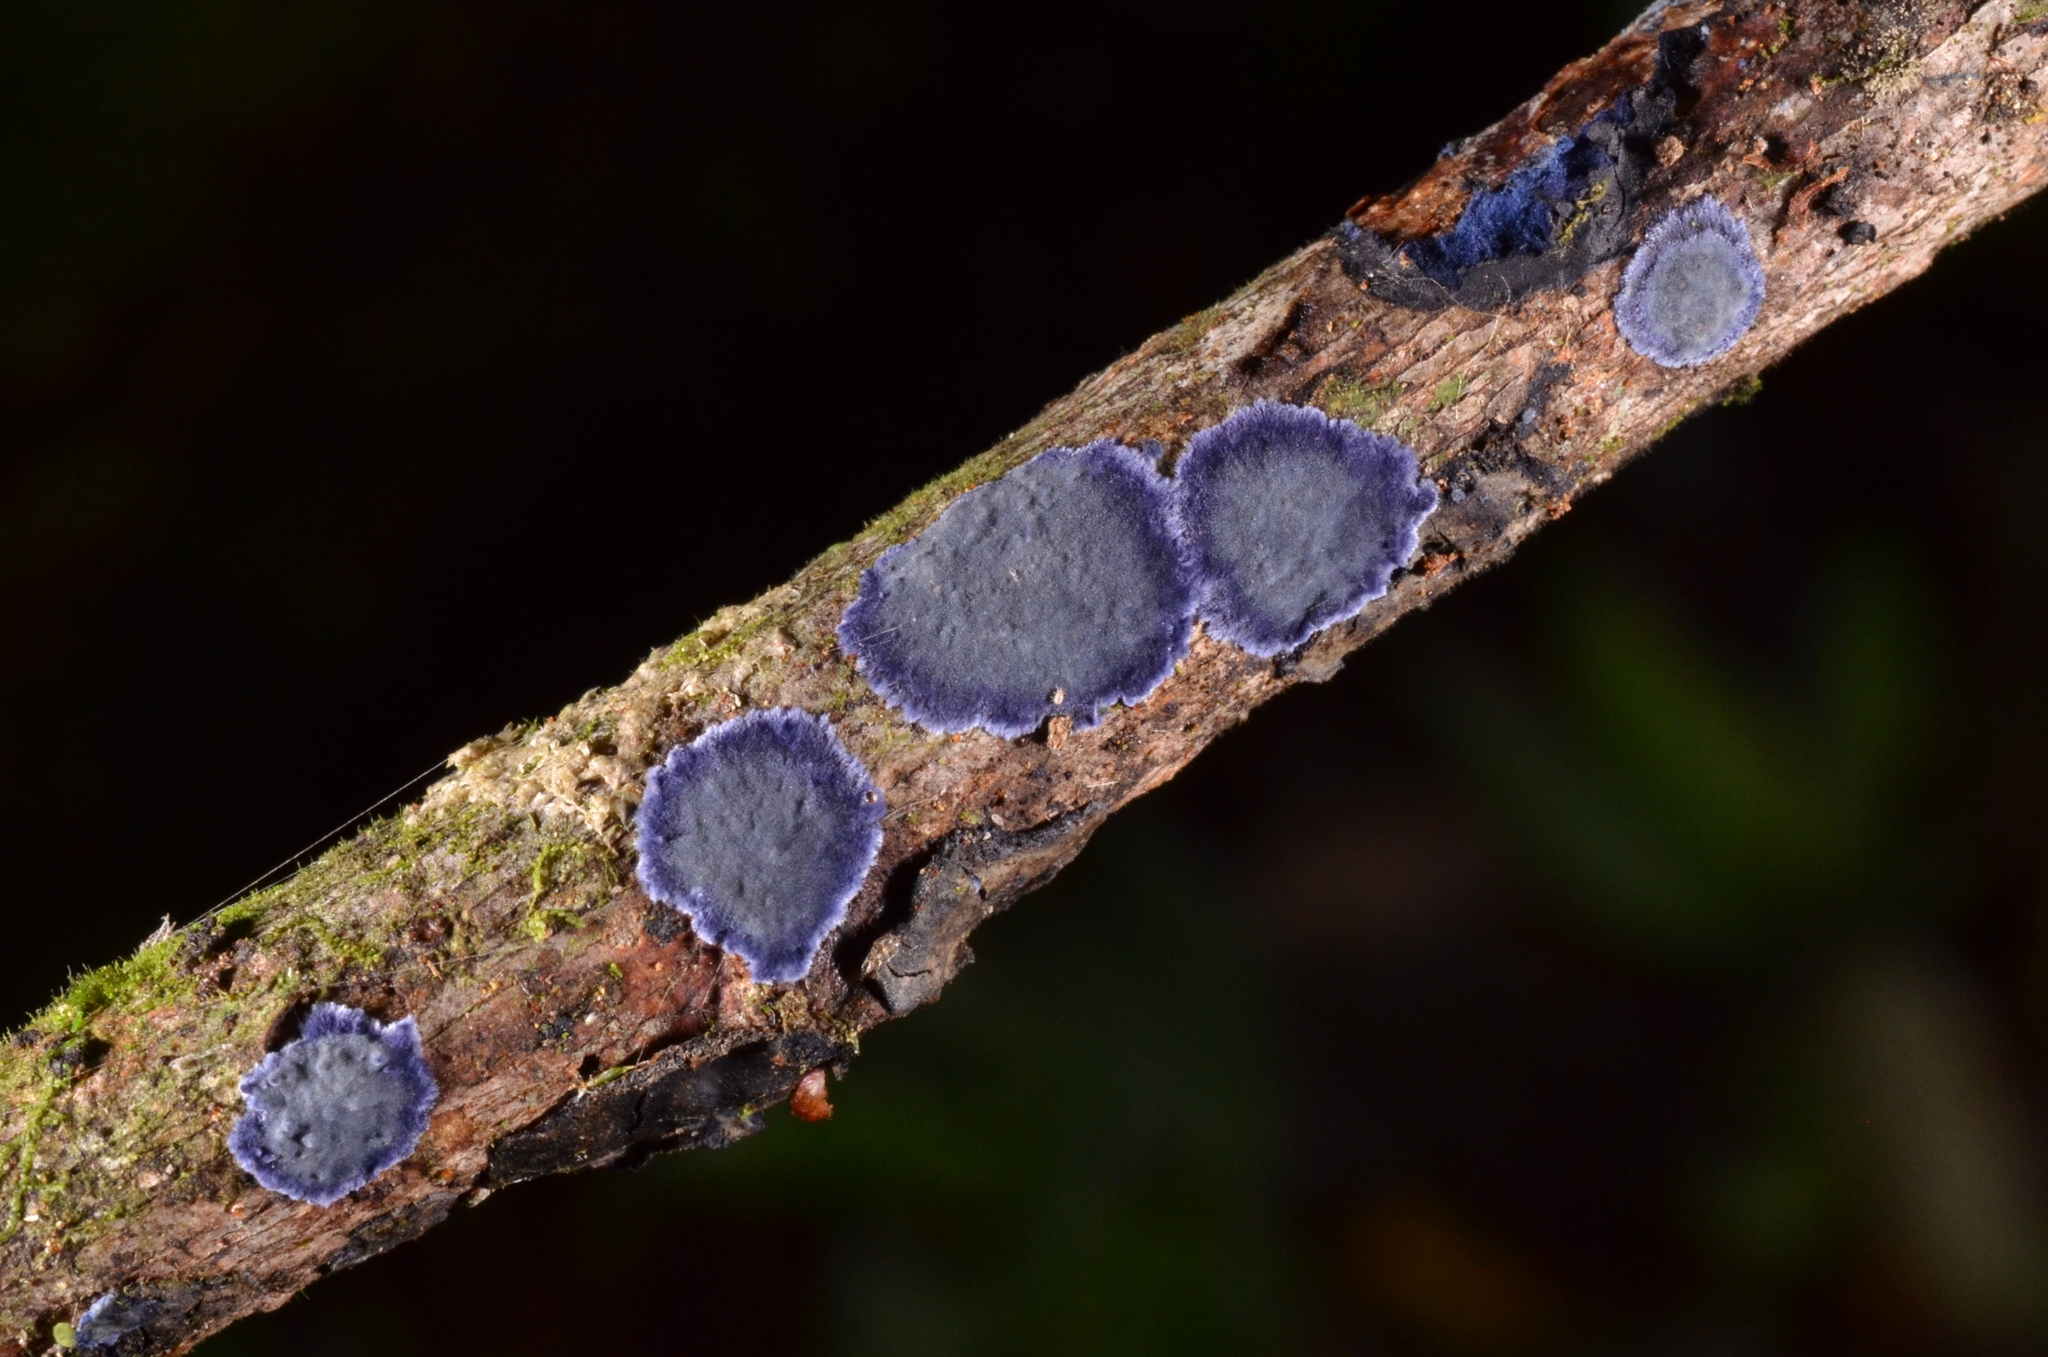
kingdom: Fungi
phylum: Basidiomycota
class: Agaricomycetes
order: Polyporales
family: Phanerochaetaceae
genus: Terana
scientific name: Terana coerulea
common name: Cobalt crust
